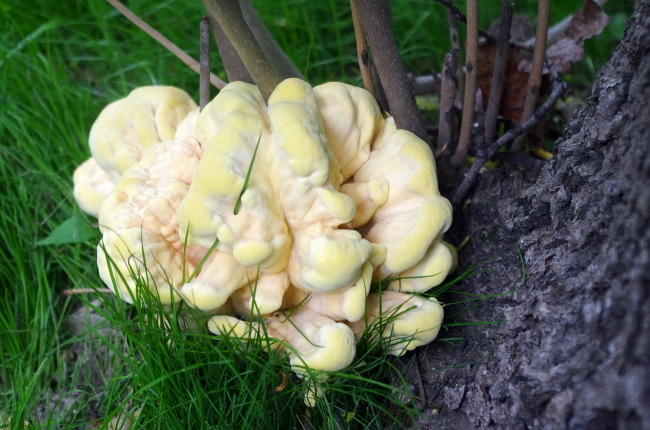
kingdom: Fungi
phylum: Basidiomycota
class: Agaricomycetes
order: Polyporales
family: Laetiporaceae
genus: Laetiporus
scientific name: Laetiporus sulphureus
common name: Chicken of the woods
